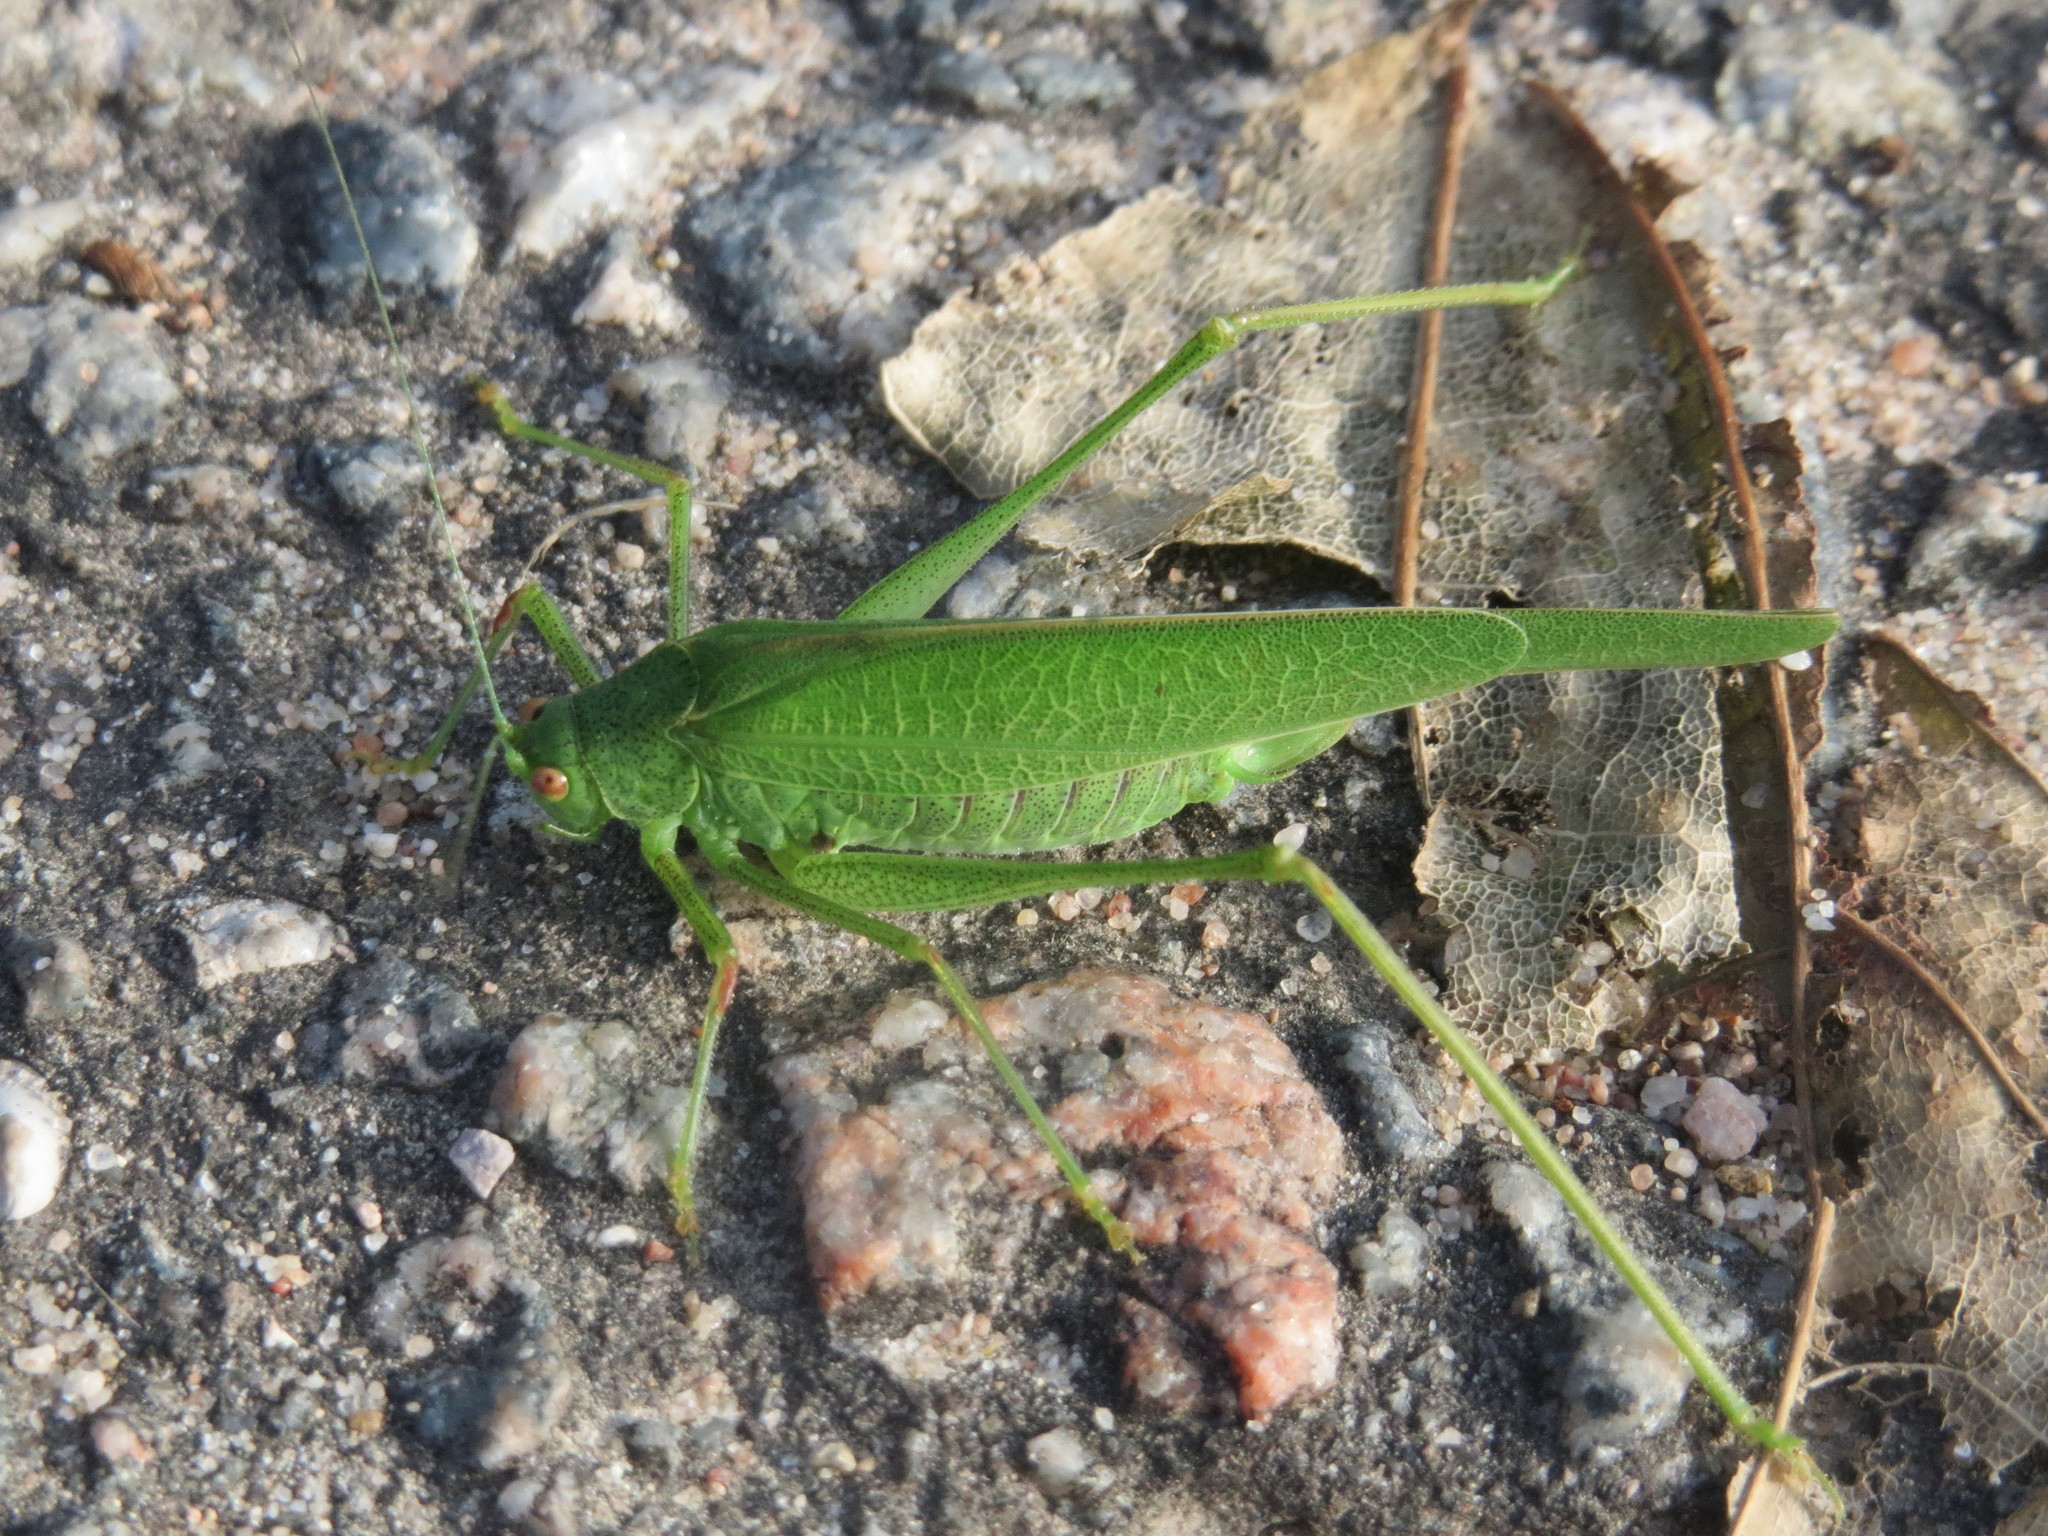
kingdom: Animalia
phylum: Arthropoda
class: Insecta
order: Orthoptera
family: Tettigoniidae
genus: Phaneroptera
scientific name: Phaneroptera
